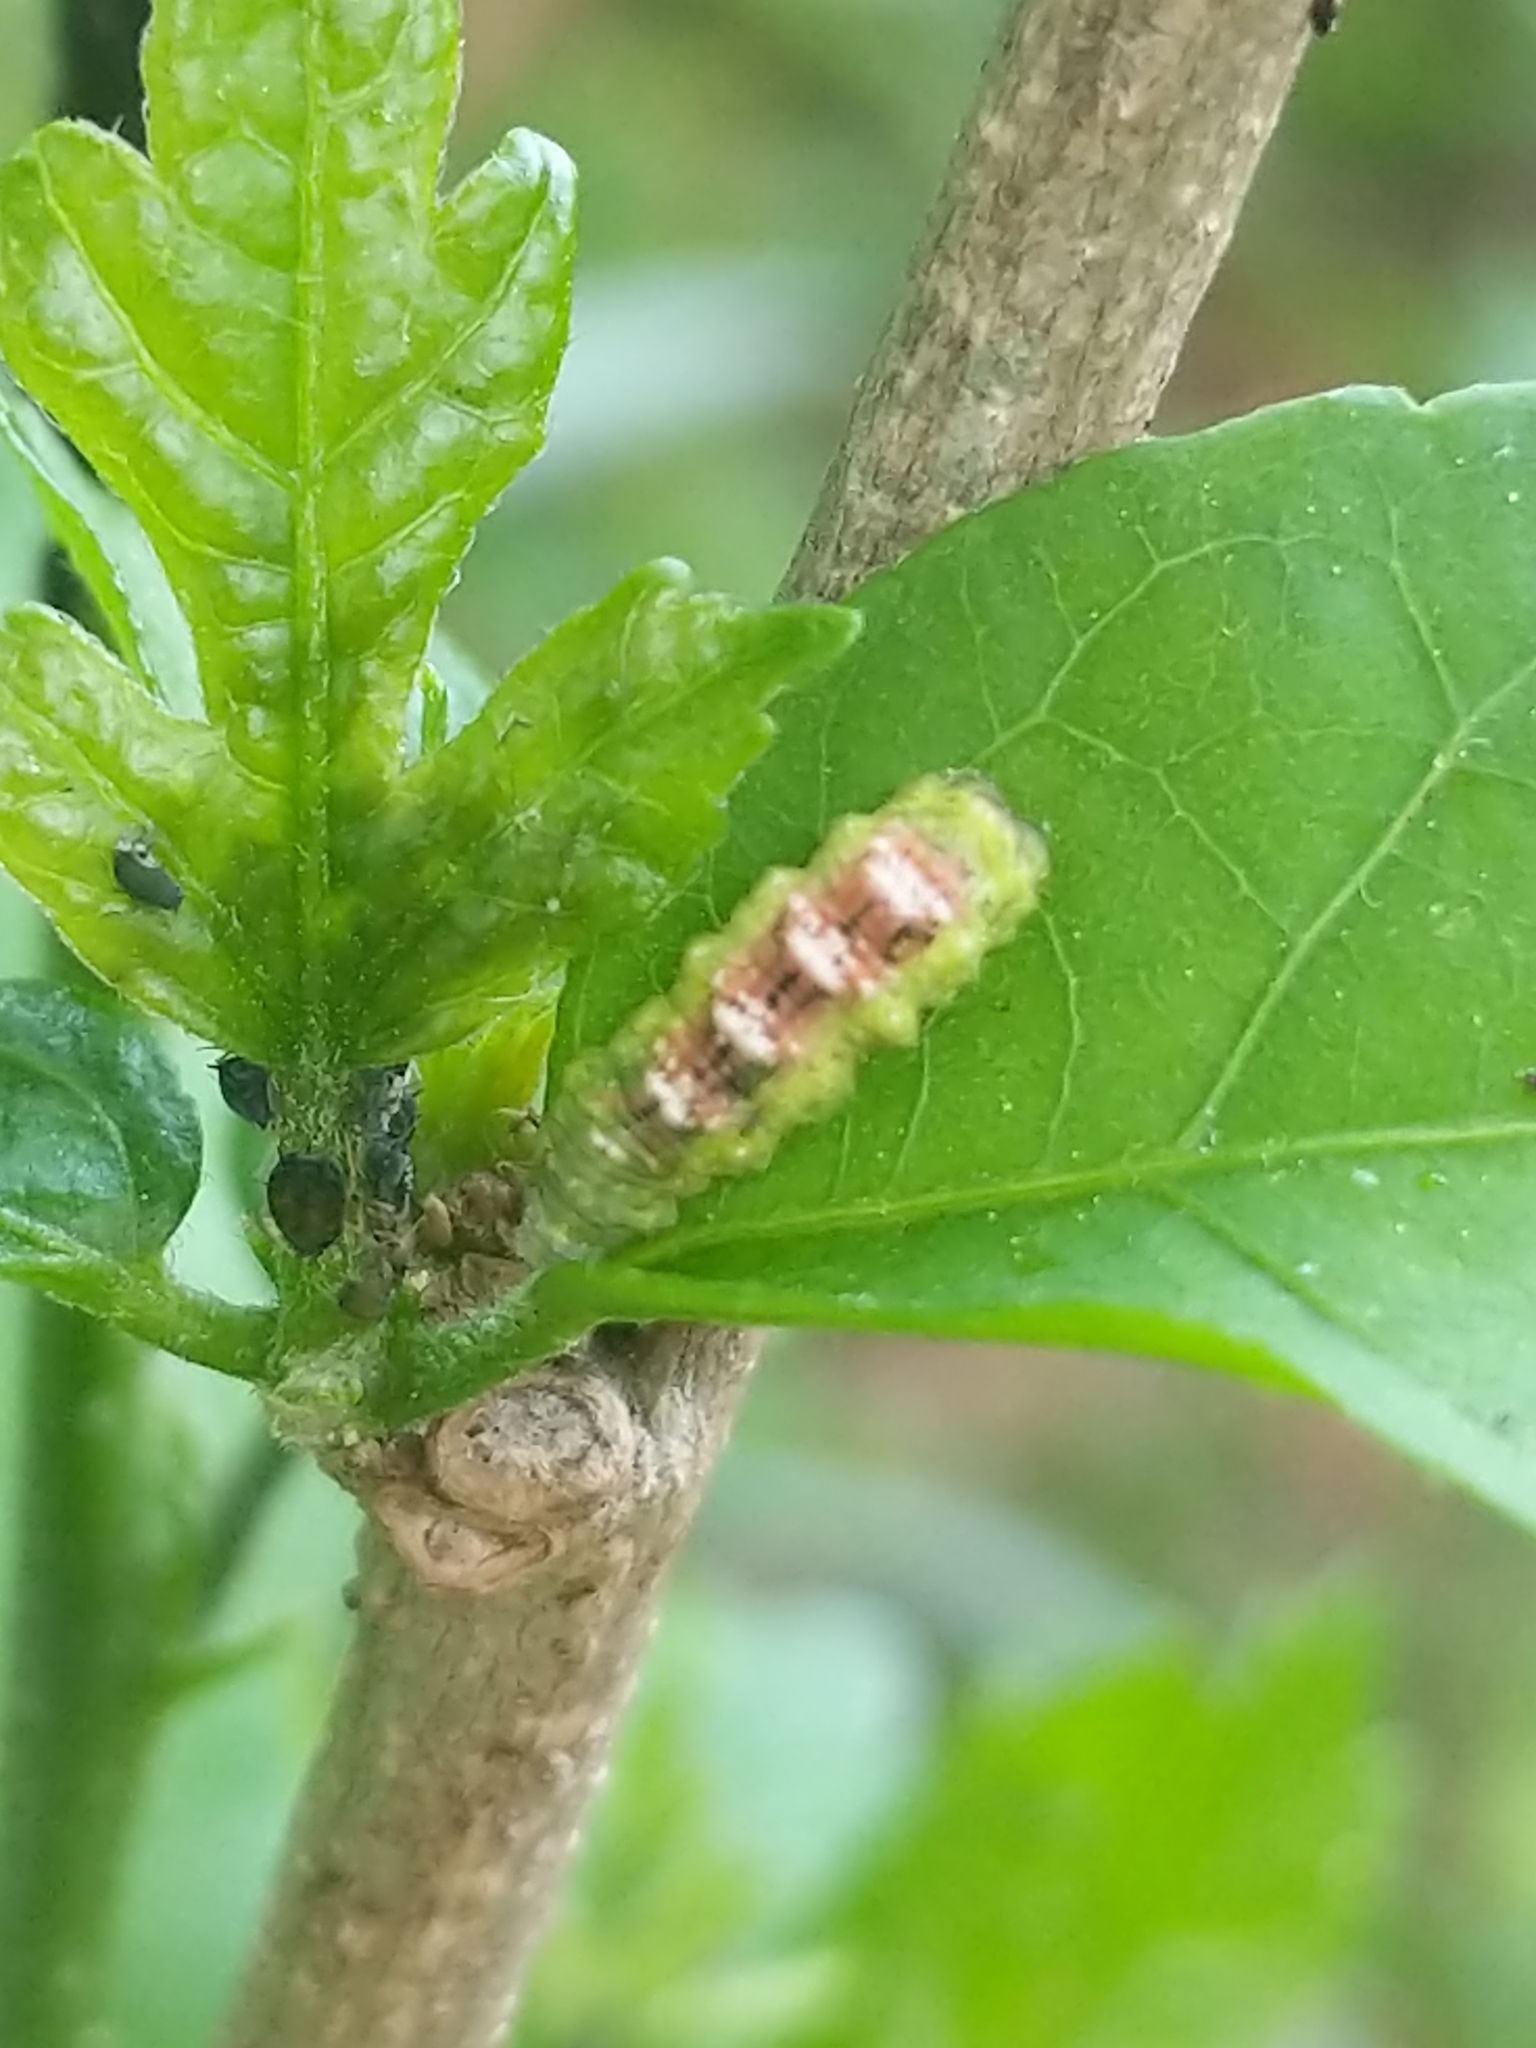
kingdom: Animalia
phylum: Arthropoda
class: Insecta
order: Diptera
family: Syrphidae
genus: Eupeodes
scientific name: Eupeodes pomus
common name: Short-tailed aphideater
